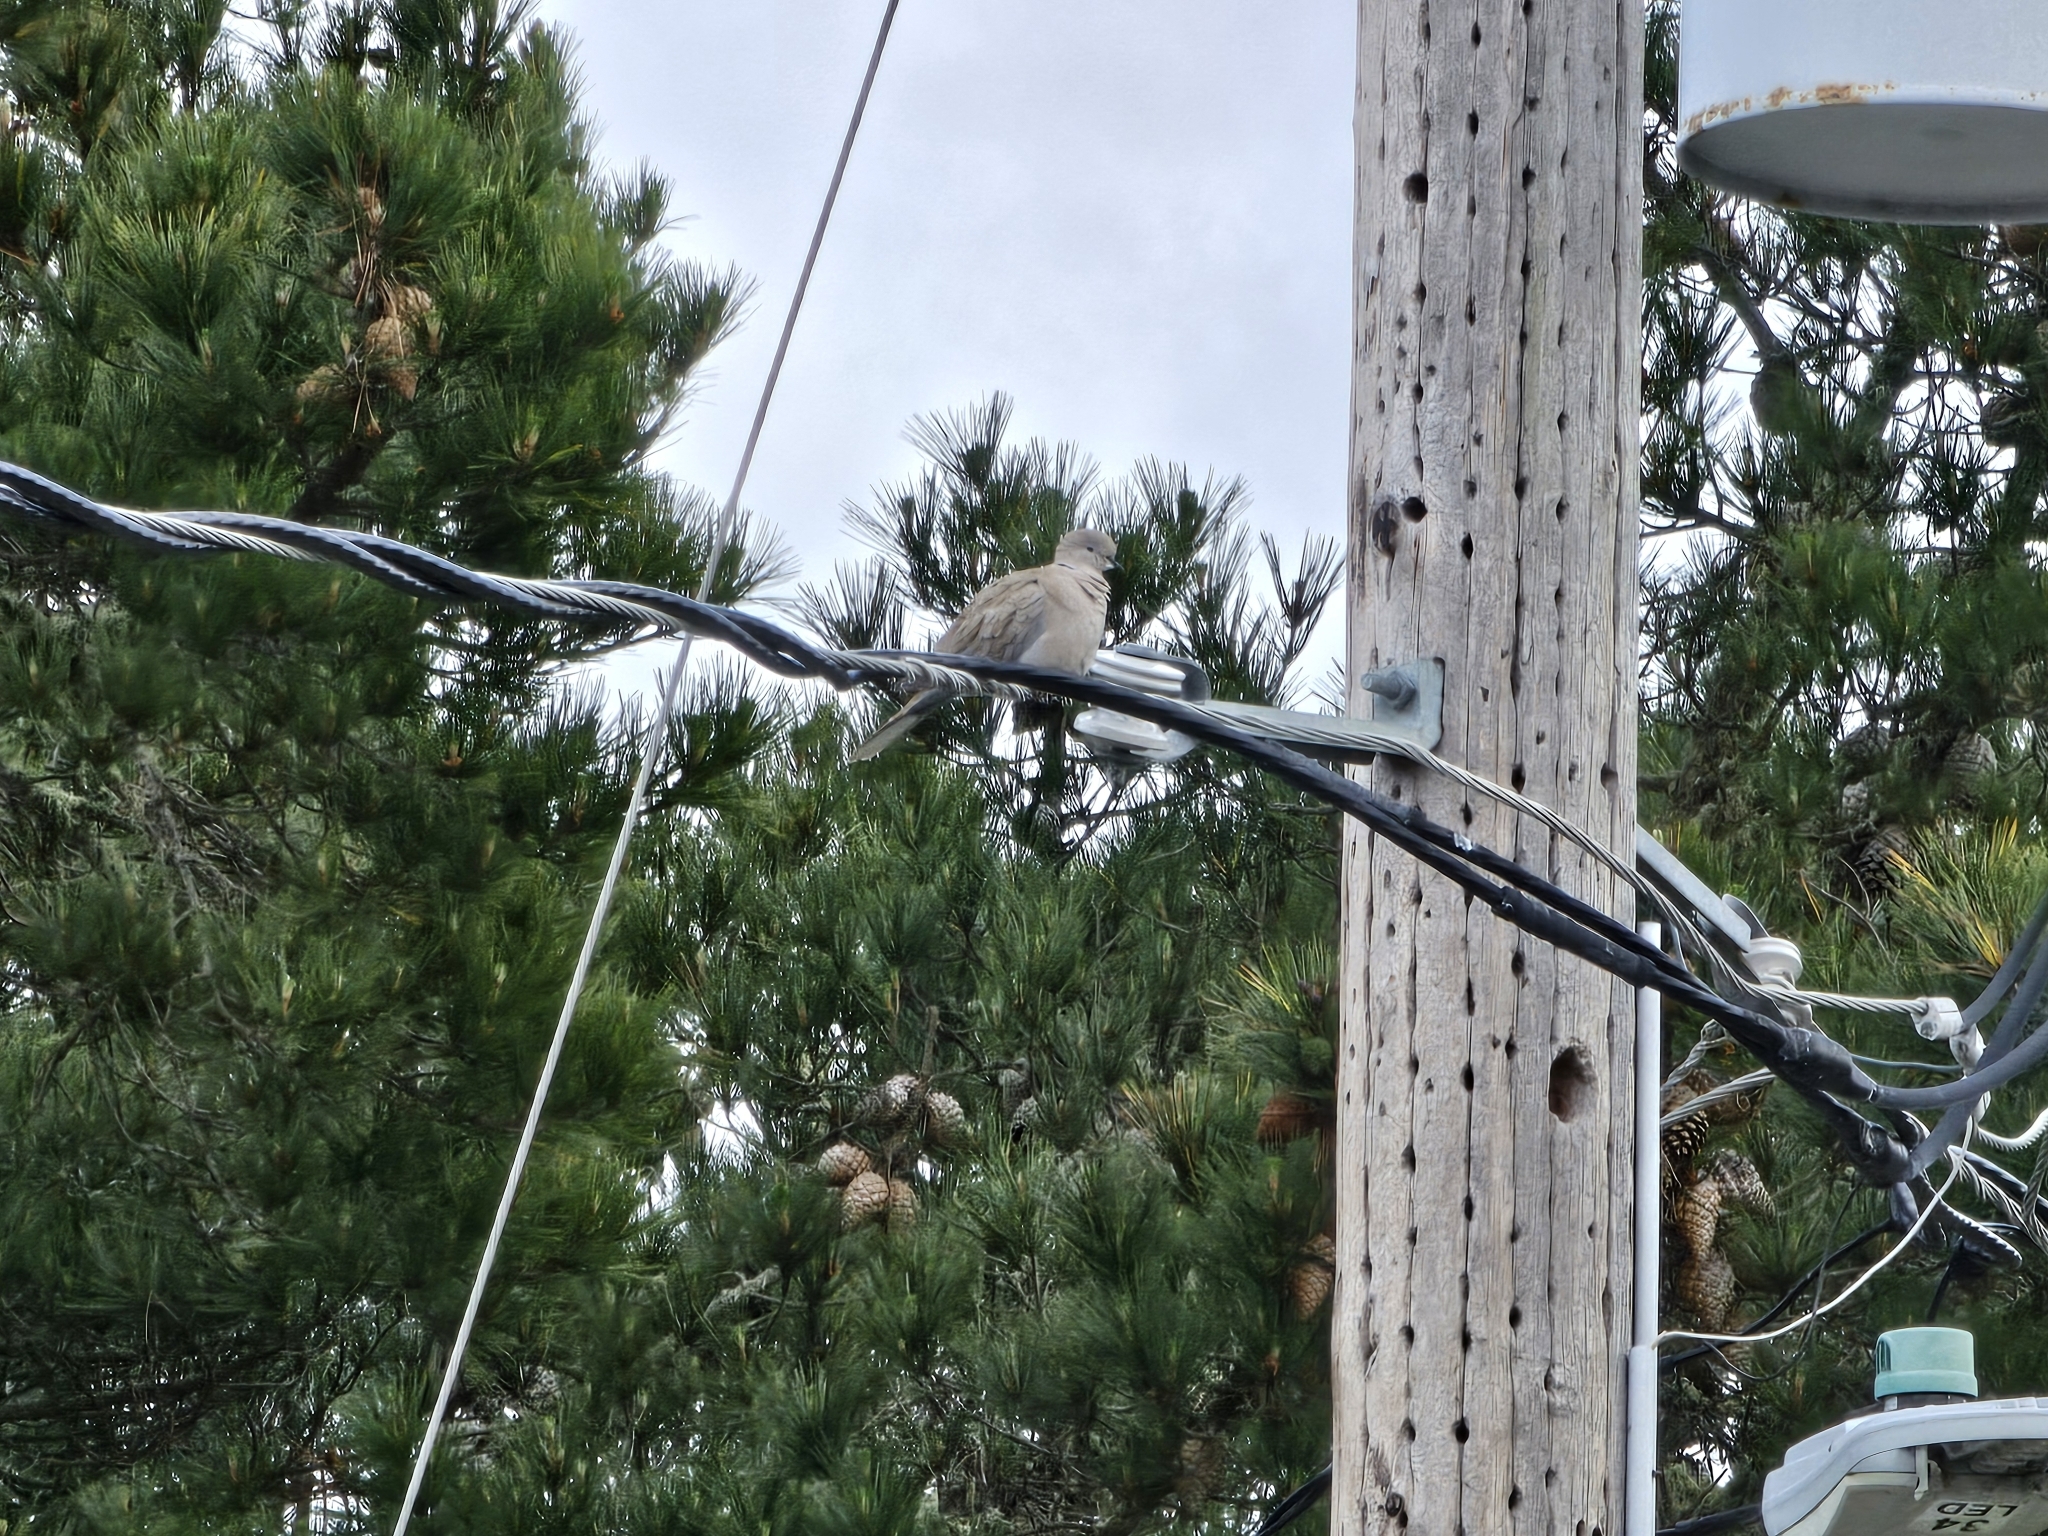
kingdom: Animalia
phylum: Chordata
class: Aves
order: Columbiformes
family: Columbidae
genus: Streptopelia
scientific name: Streptopelia decaocto
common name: Eurasian collared dove
